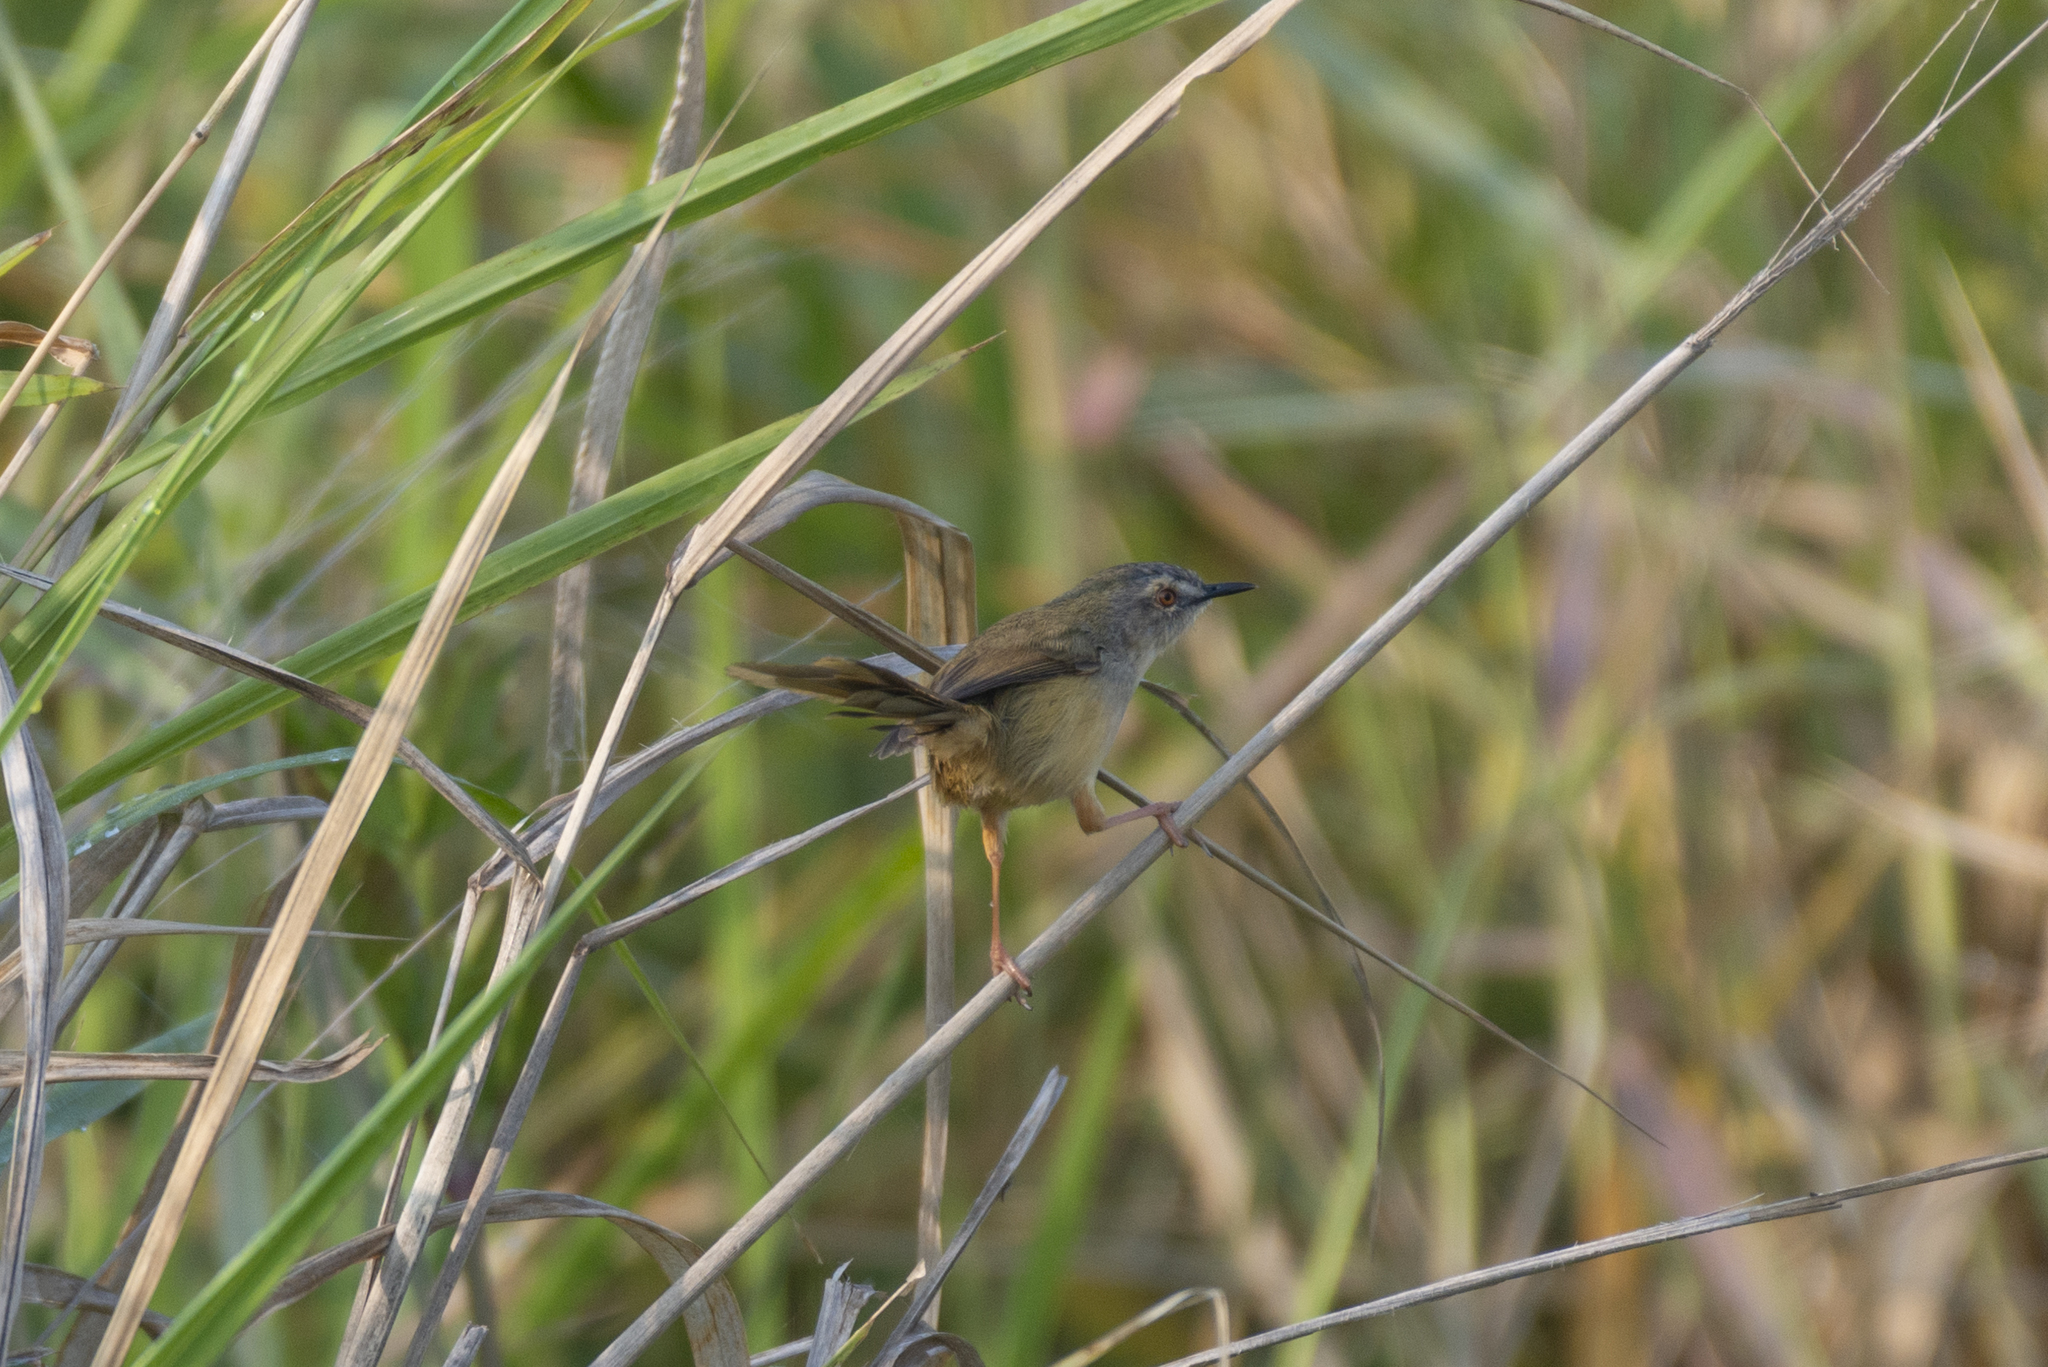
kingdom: Animalia
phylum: Chordata
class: Aves
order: Passeriformes
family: Cisticolidae
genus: Prinia
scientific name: Prinia flaviventris
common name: Yellow-bellied prinia
